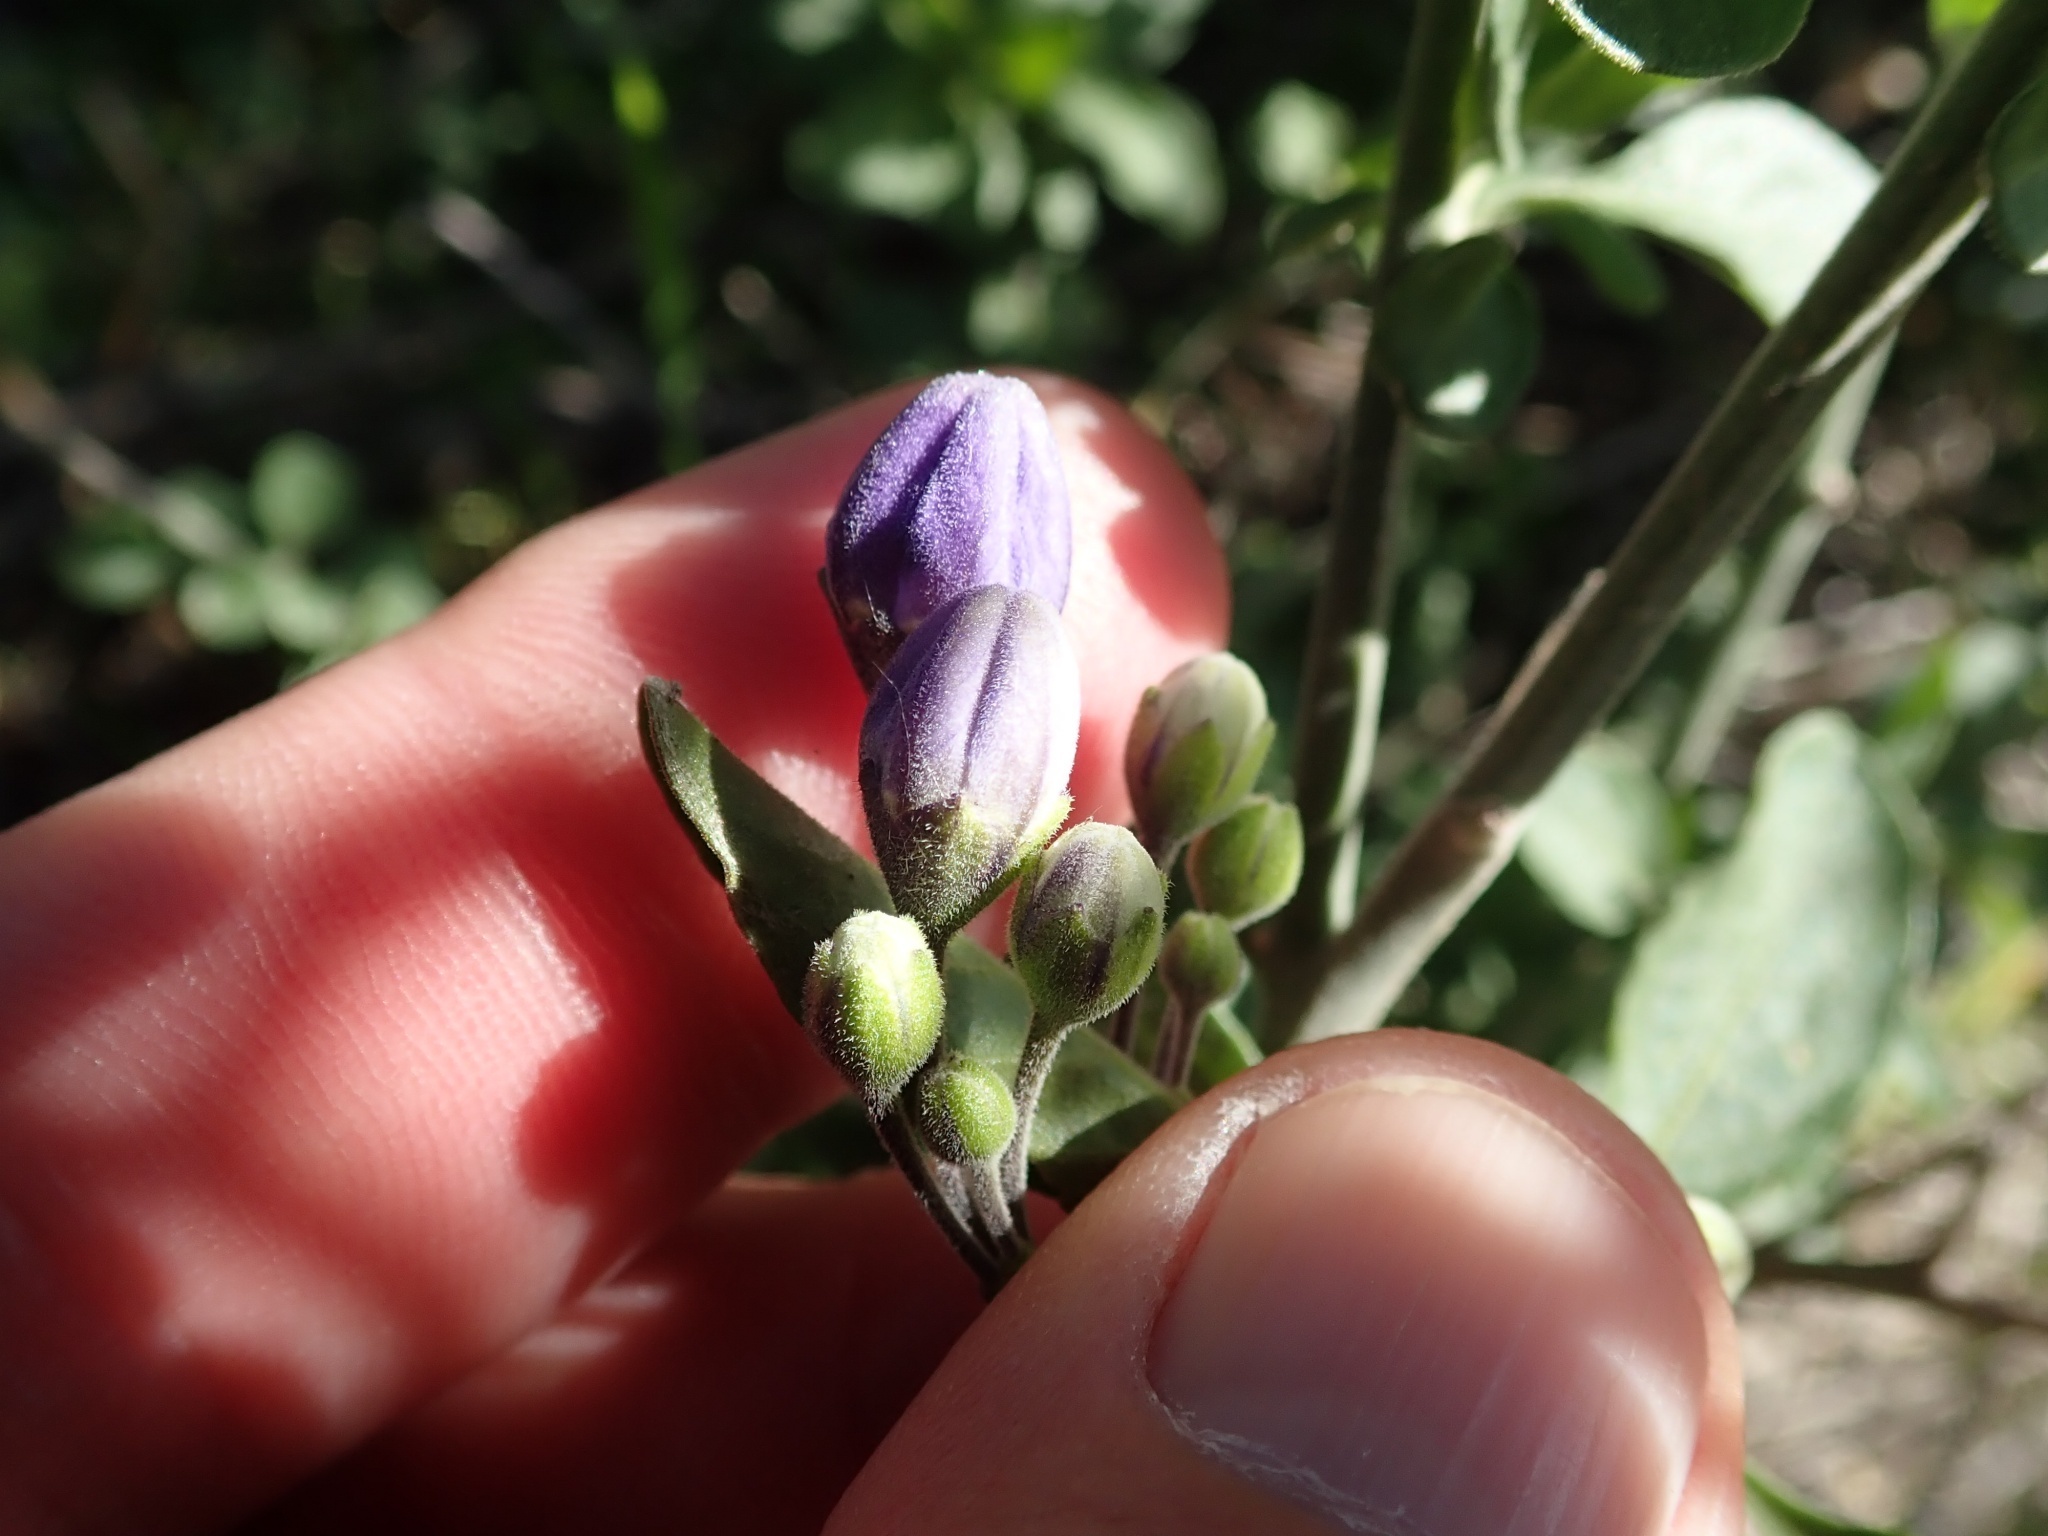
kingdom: Plantae
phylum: Tracheophyta
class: Magnoliopsida
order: Solanales
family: Solanaceae
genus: Solanum
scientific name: Solanum umbelliferum
